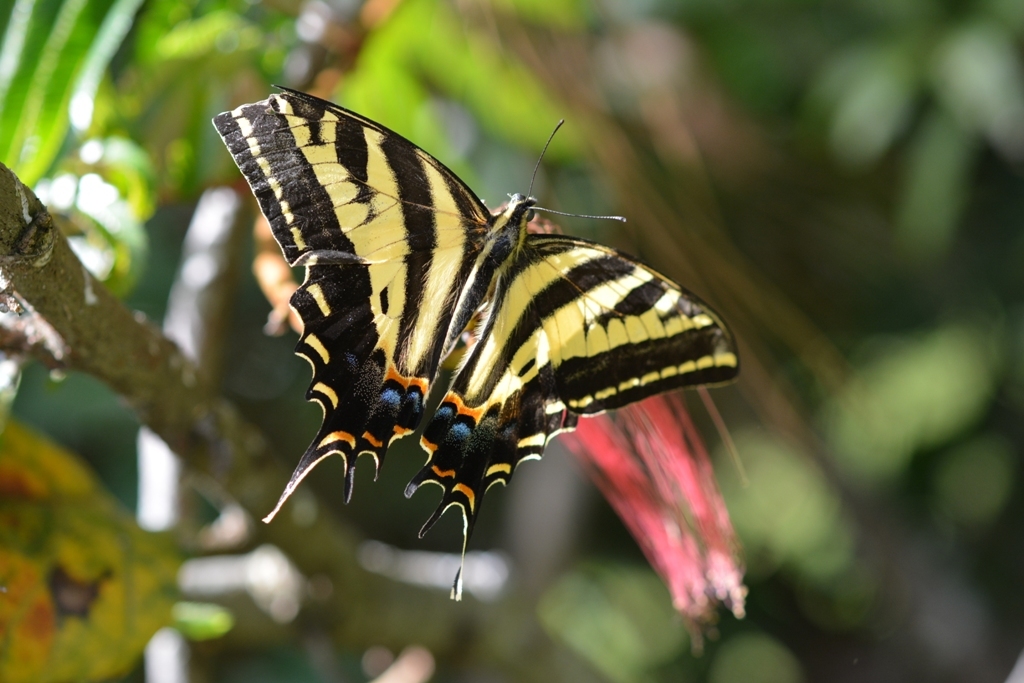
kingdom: Animalia
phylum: Arthropoda
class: Insecta
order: Lepidoptera
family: Papilionidae
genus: Papilio
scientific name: Papilio pilumnus
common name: Three-tailed tiger swallowtail
